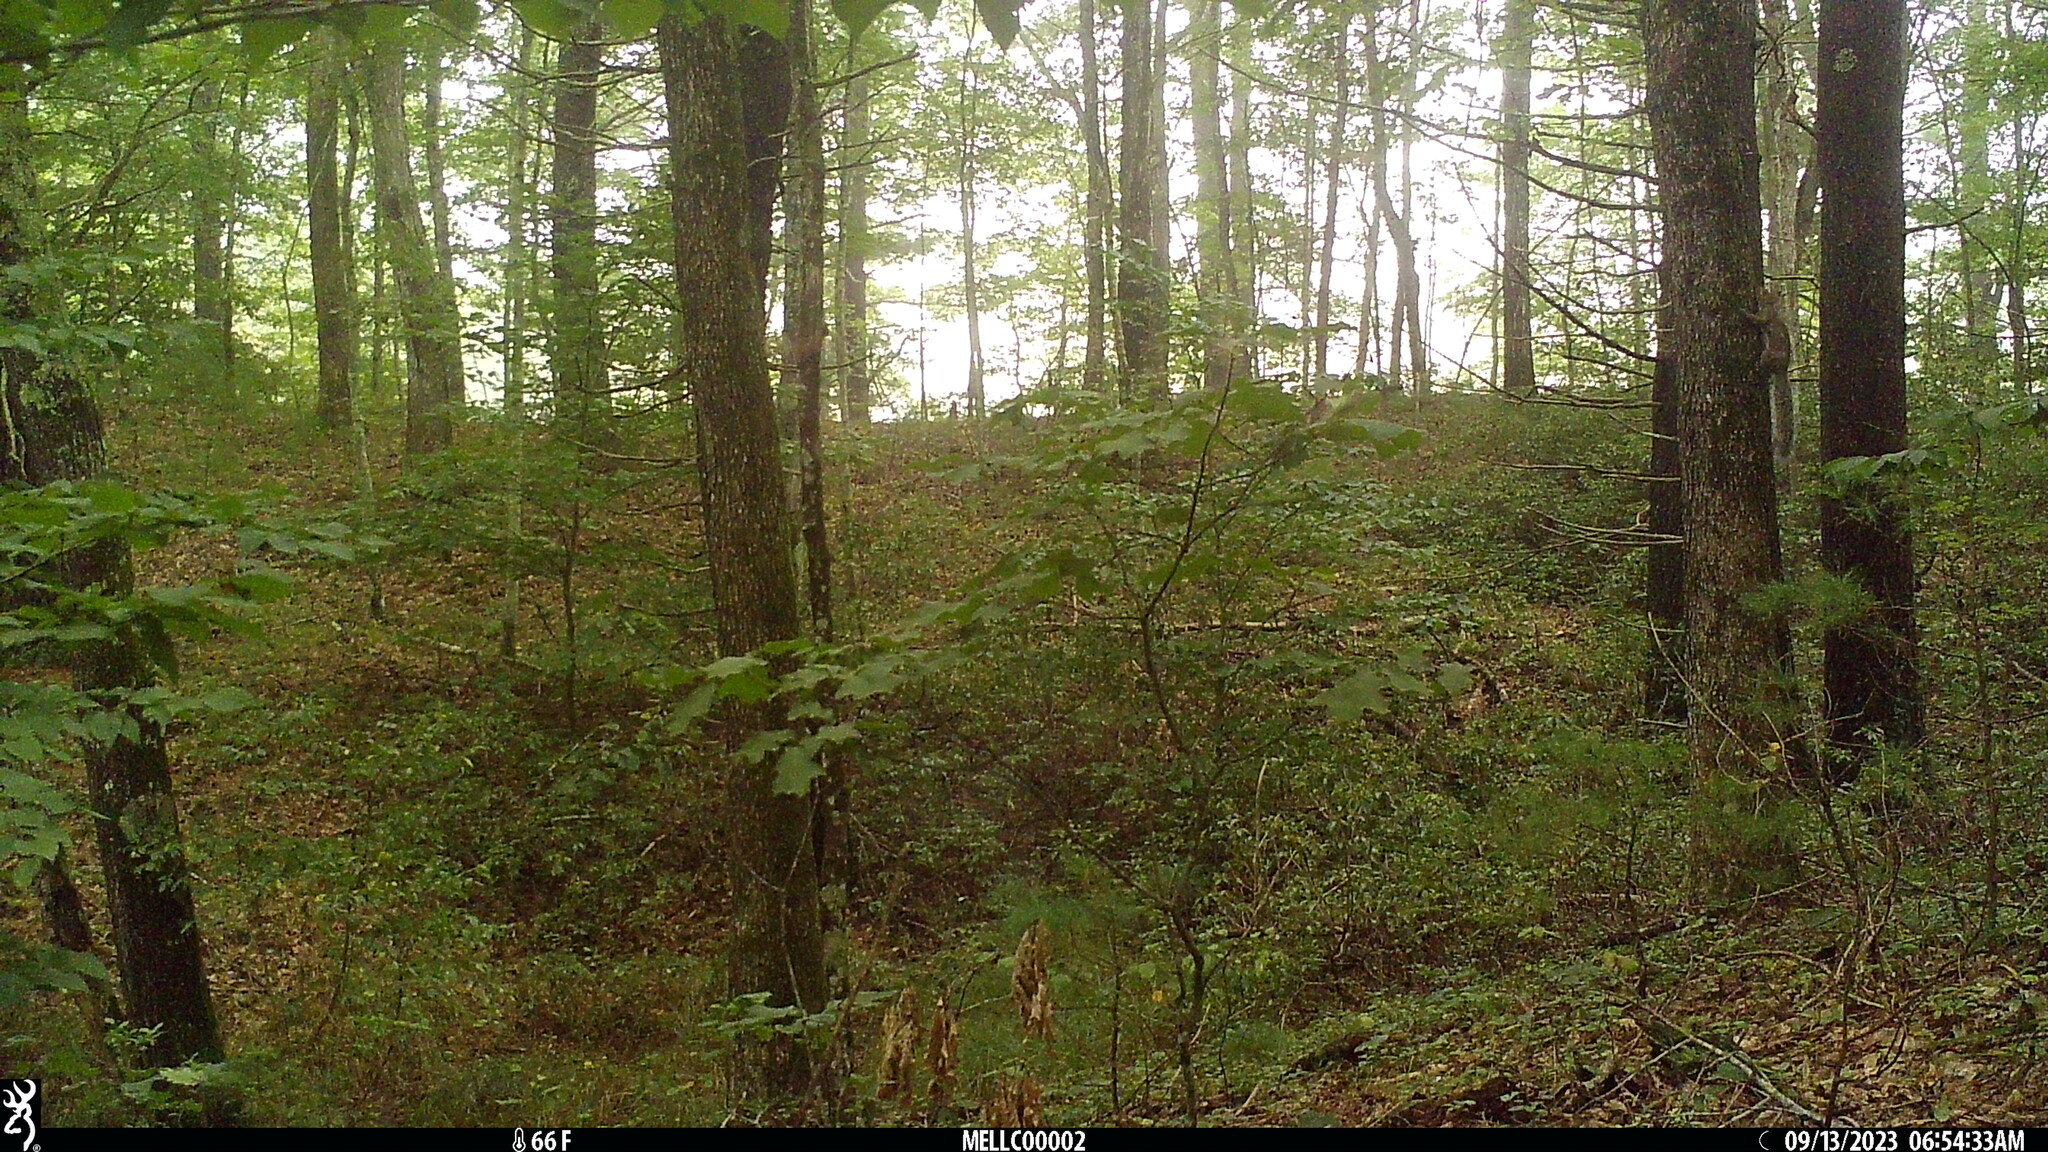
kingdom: Animalia
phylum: Chordata
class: Mammalia
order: Rodentia
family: Sciuridae
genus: Sciurus
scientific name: Sciurus carolinensis
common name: Eastern gray squirrel
